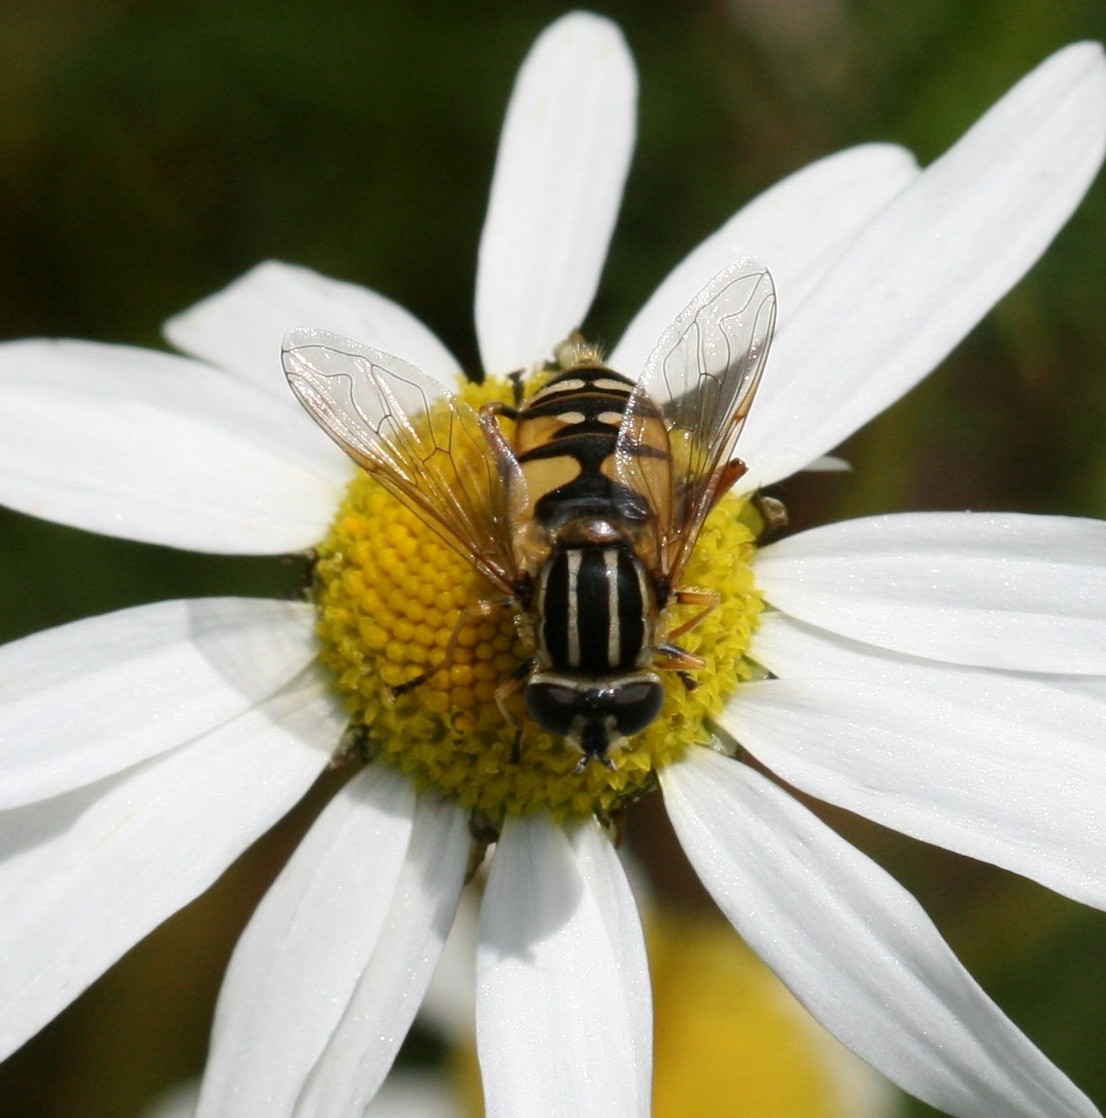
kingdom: Animalia
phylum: Arthropoda
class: Insecta
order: Diptera
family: Syrphidae
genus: Helophilus
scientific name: Helophilus pendulus
